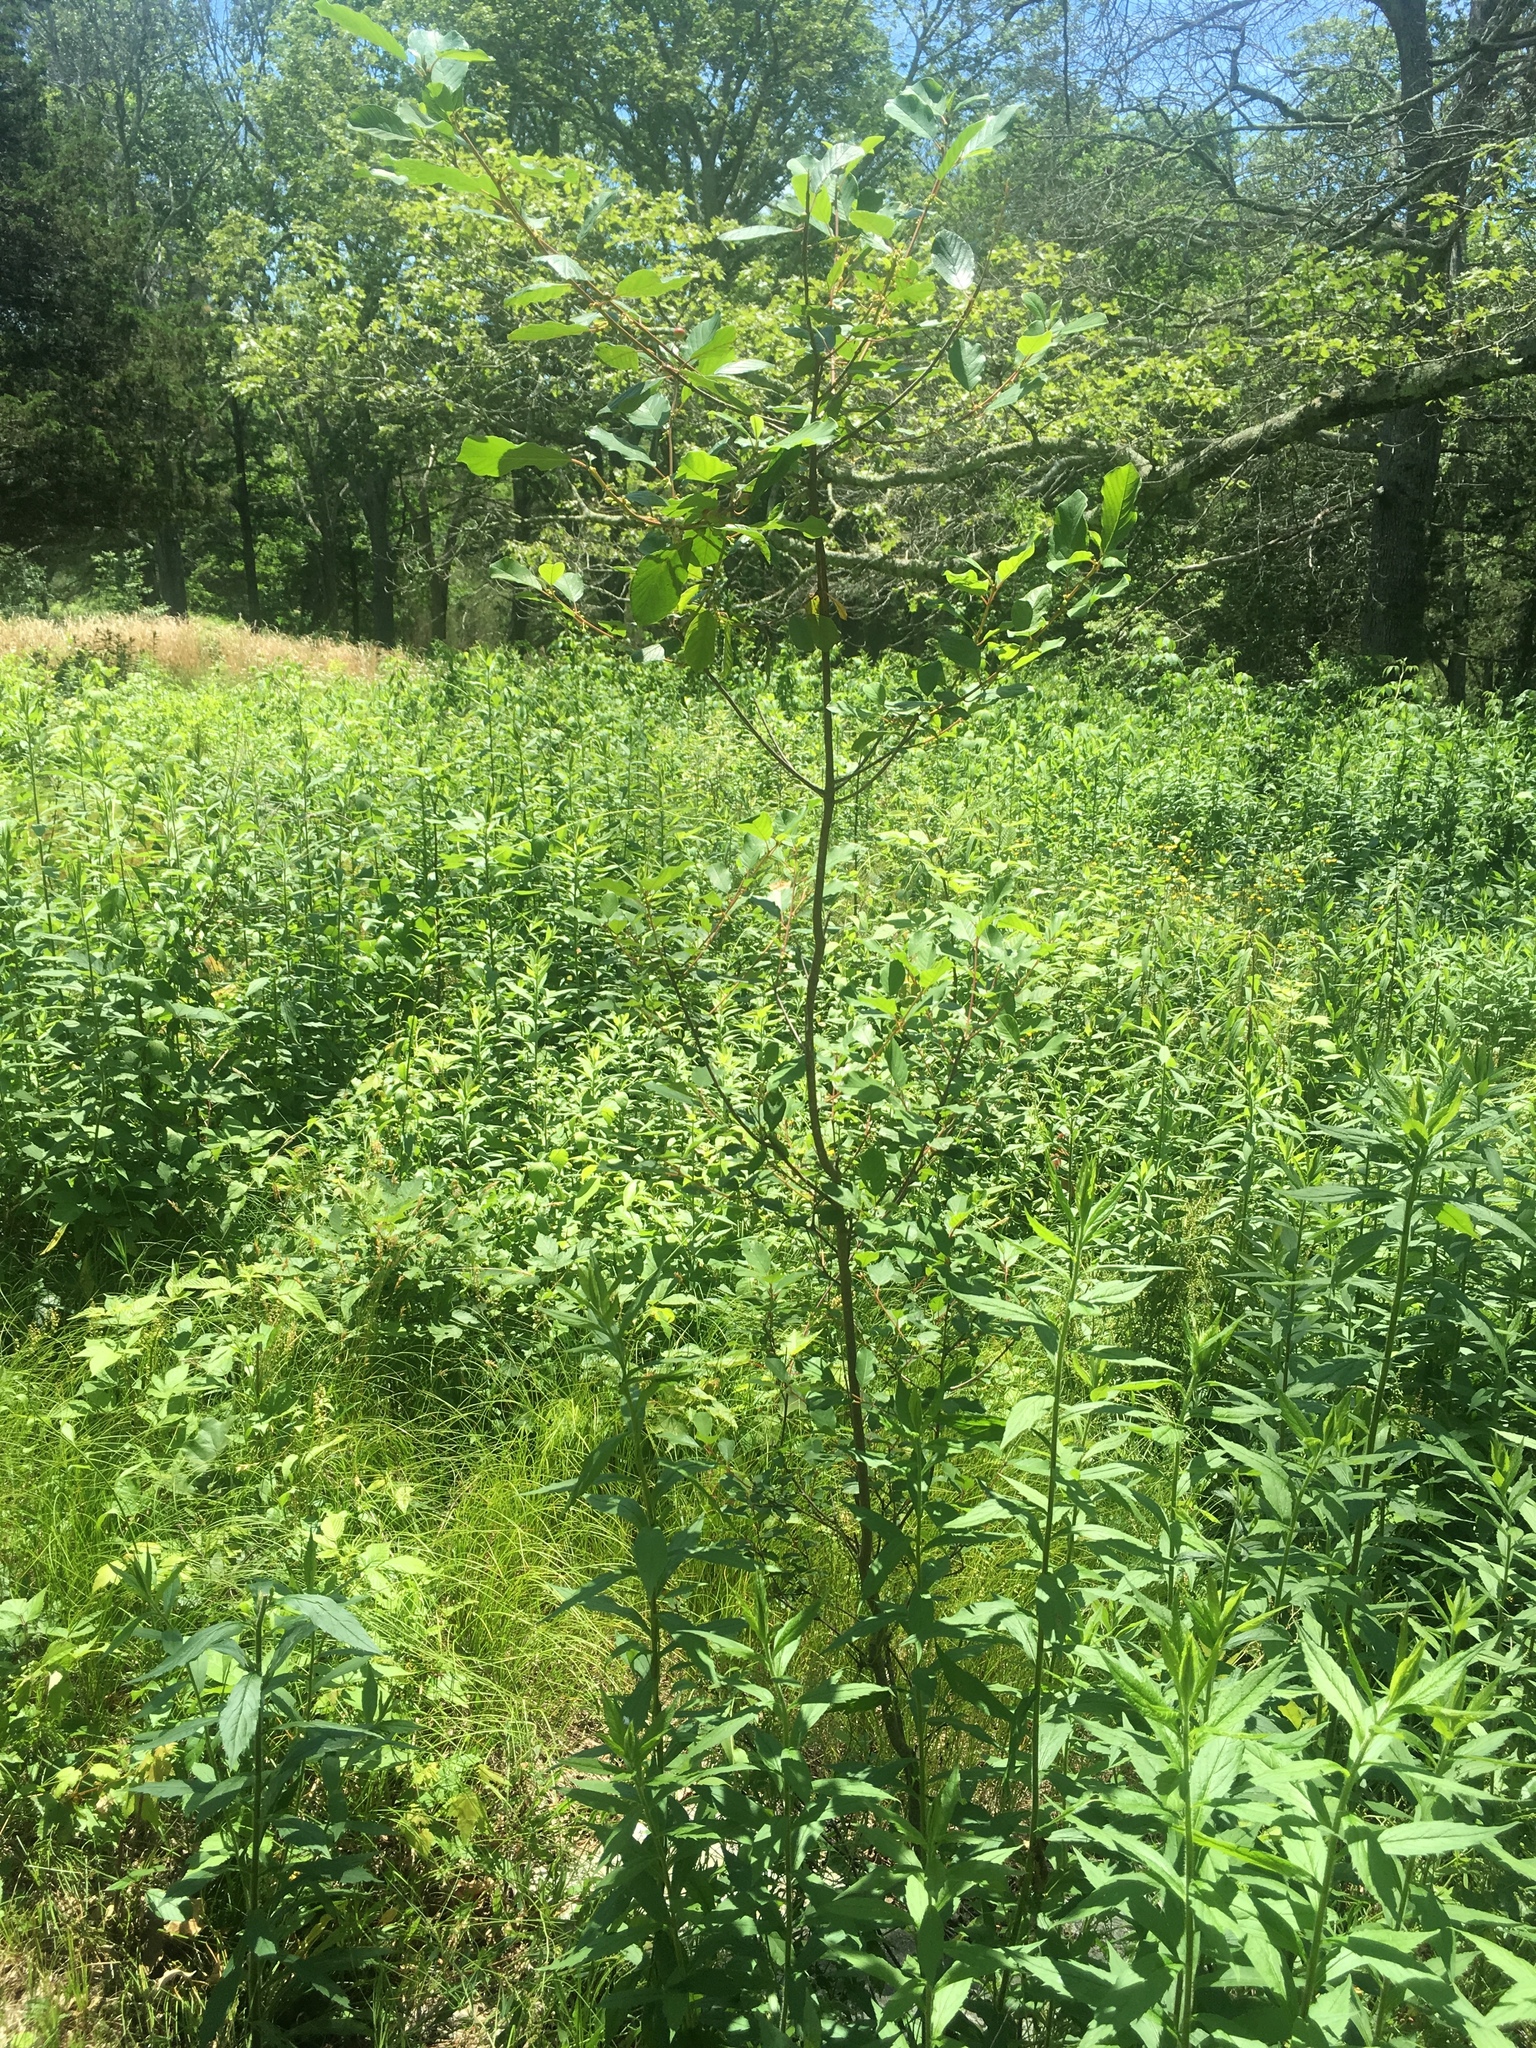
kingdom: Plantae
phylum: Tracheophyta
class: Magnoliopsida
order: Rosales
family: Rhamnaceae
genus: Frangula
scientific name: Frangula alnus
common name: Alder buckthorn
